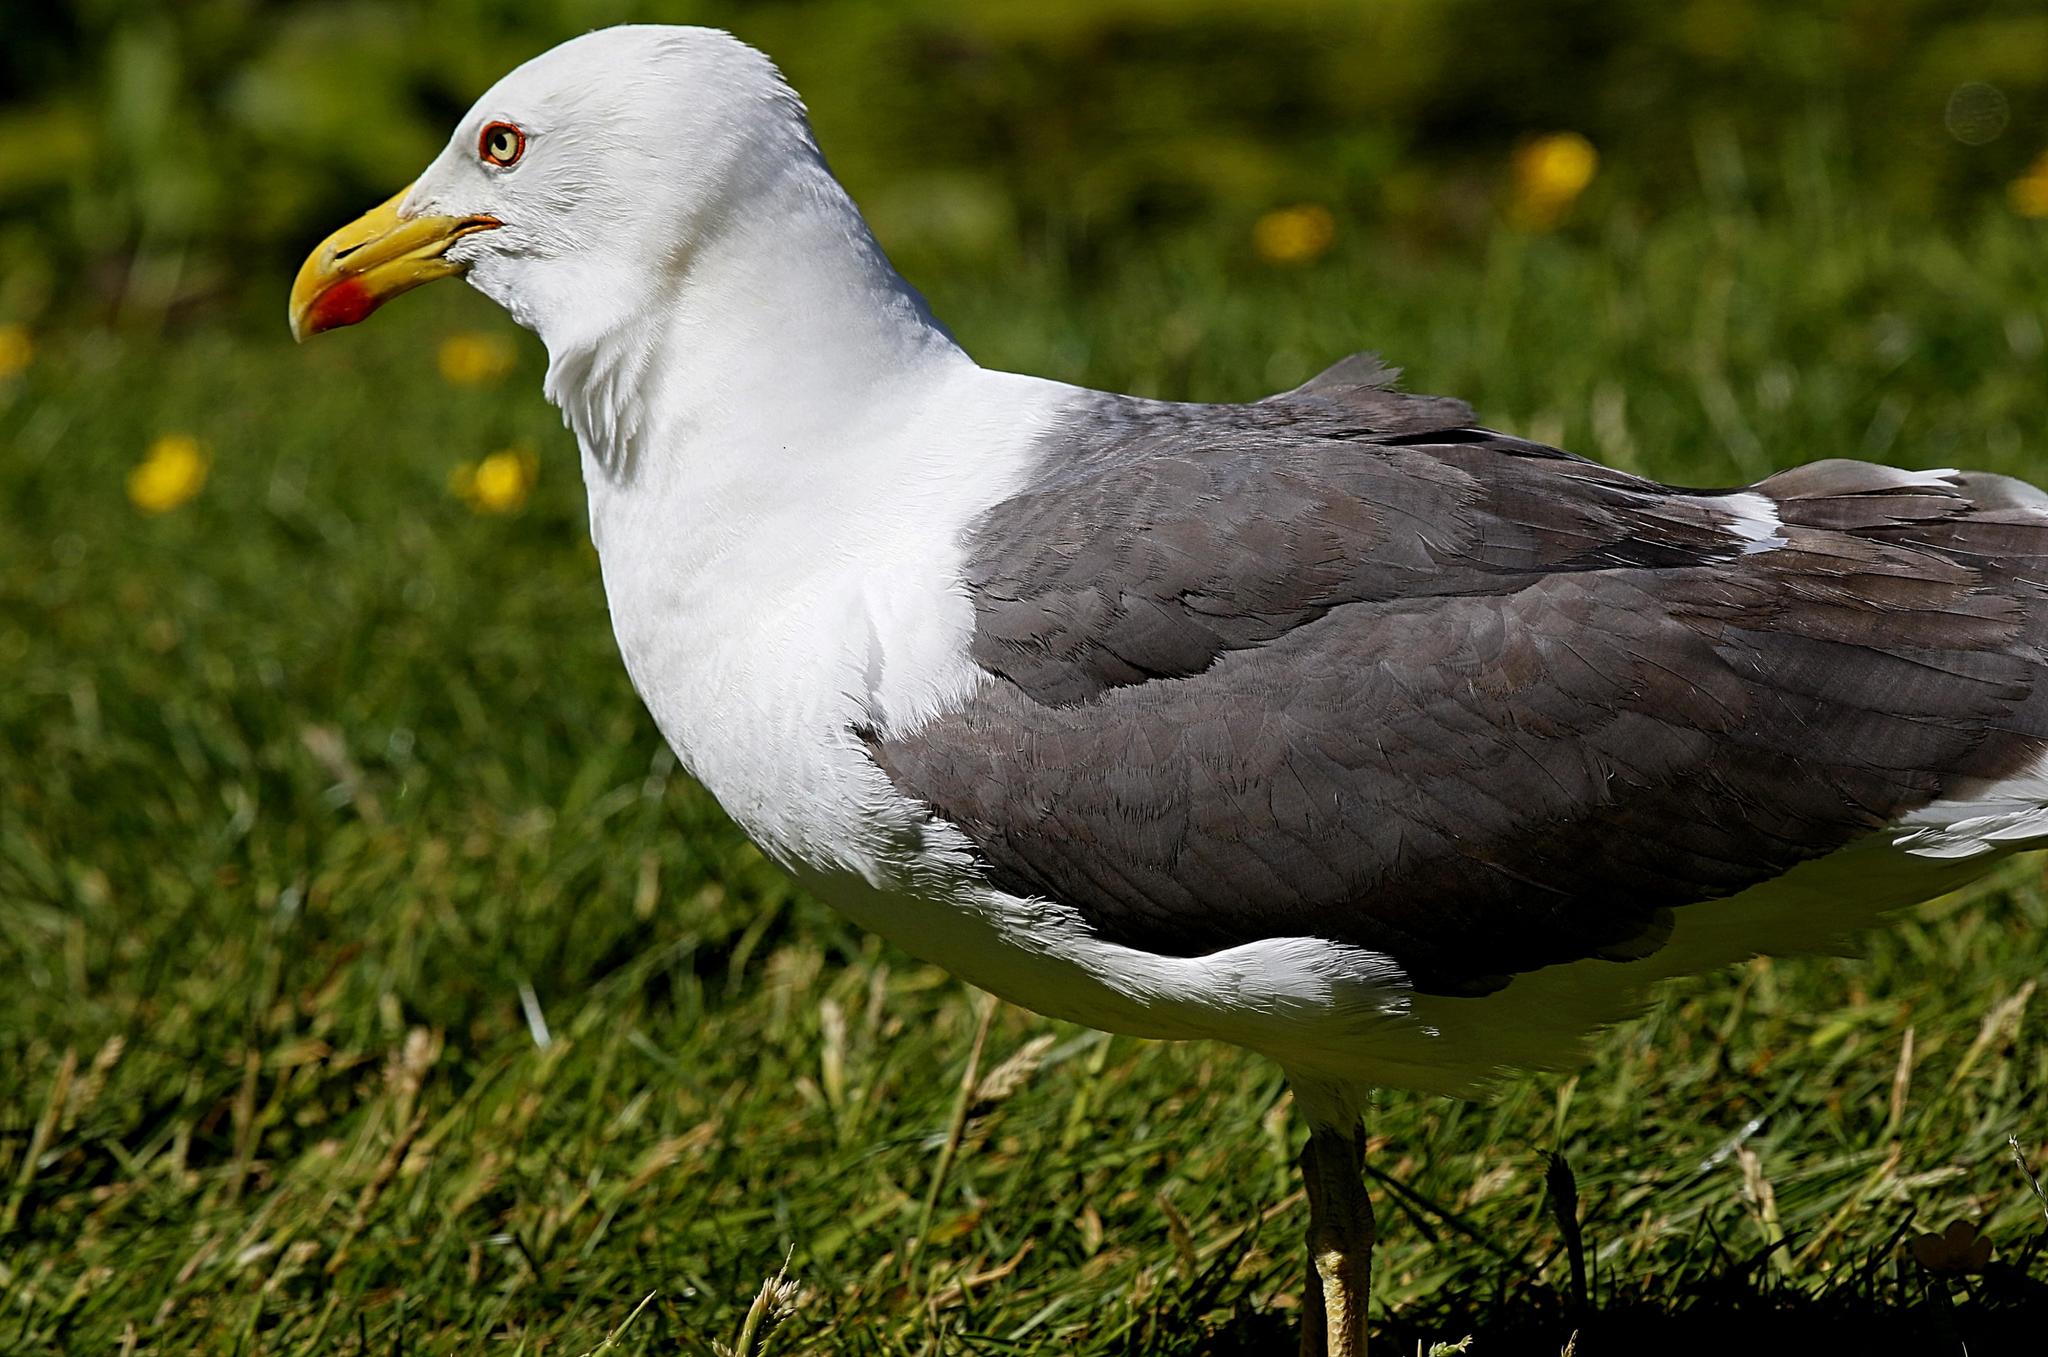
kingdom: Animalia
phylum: Chordata
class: Aves
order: Charadriiformes
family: Laridae
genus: Larus
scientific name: Larus fuscus
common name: Lesser black-backed gull
